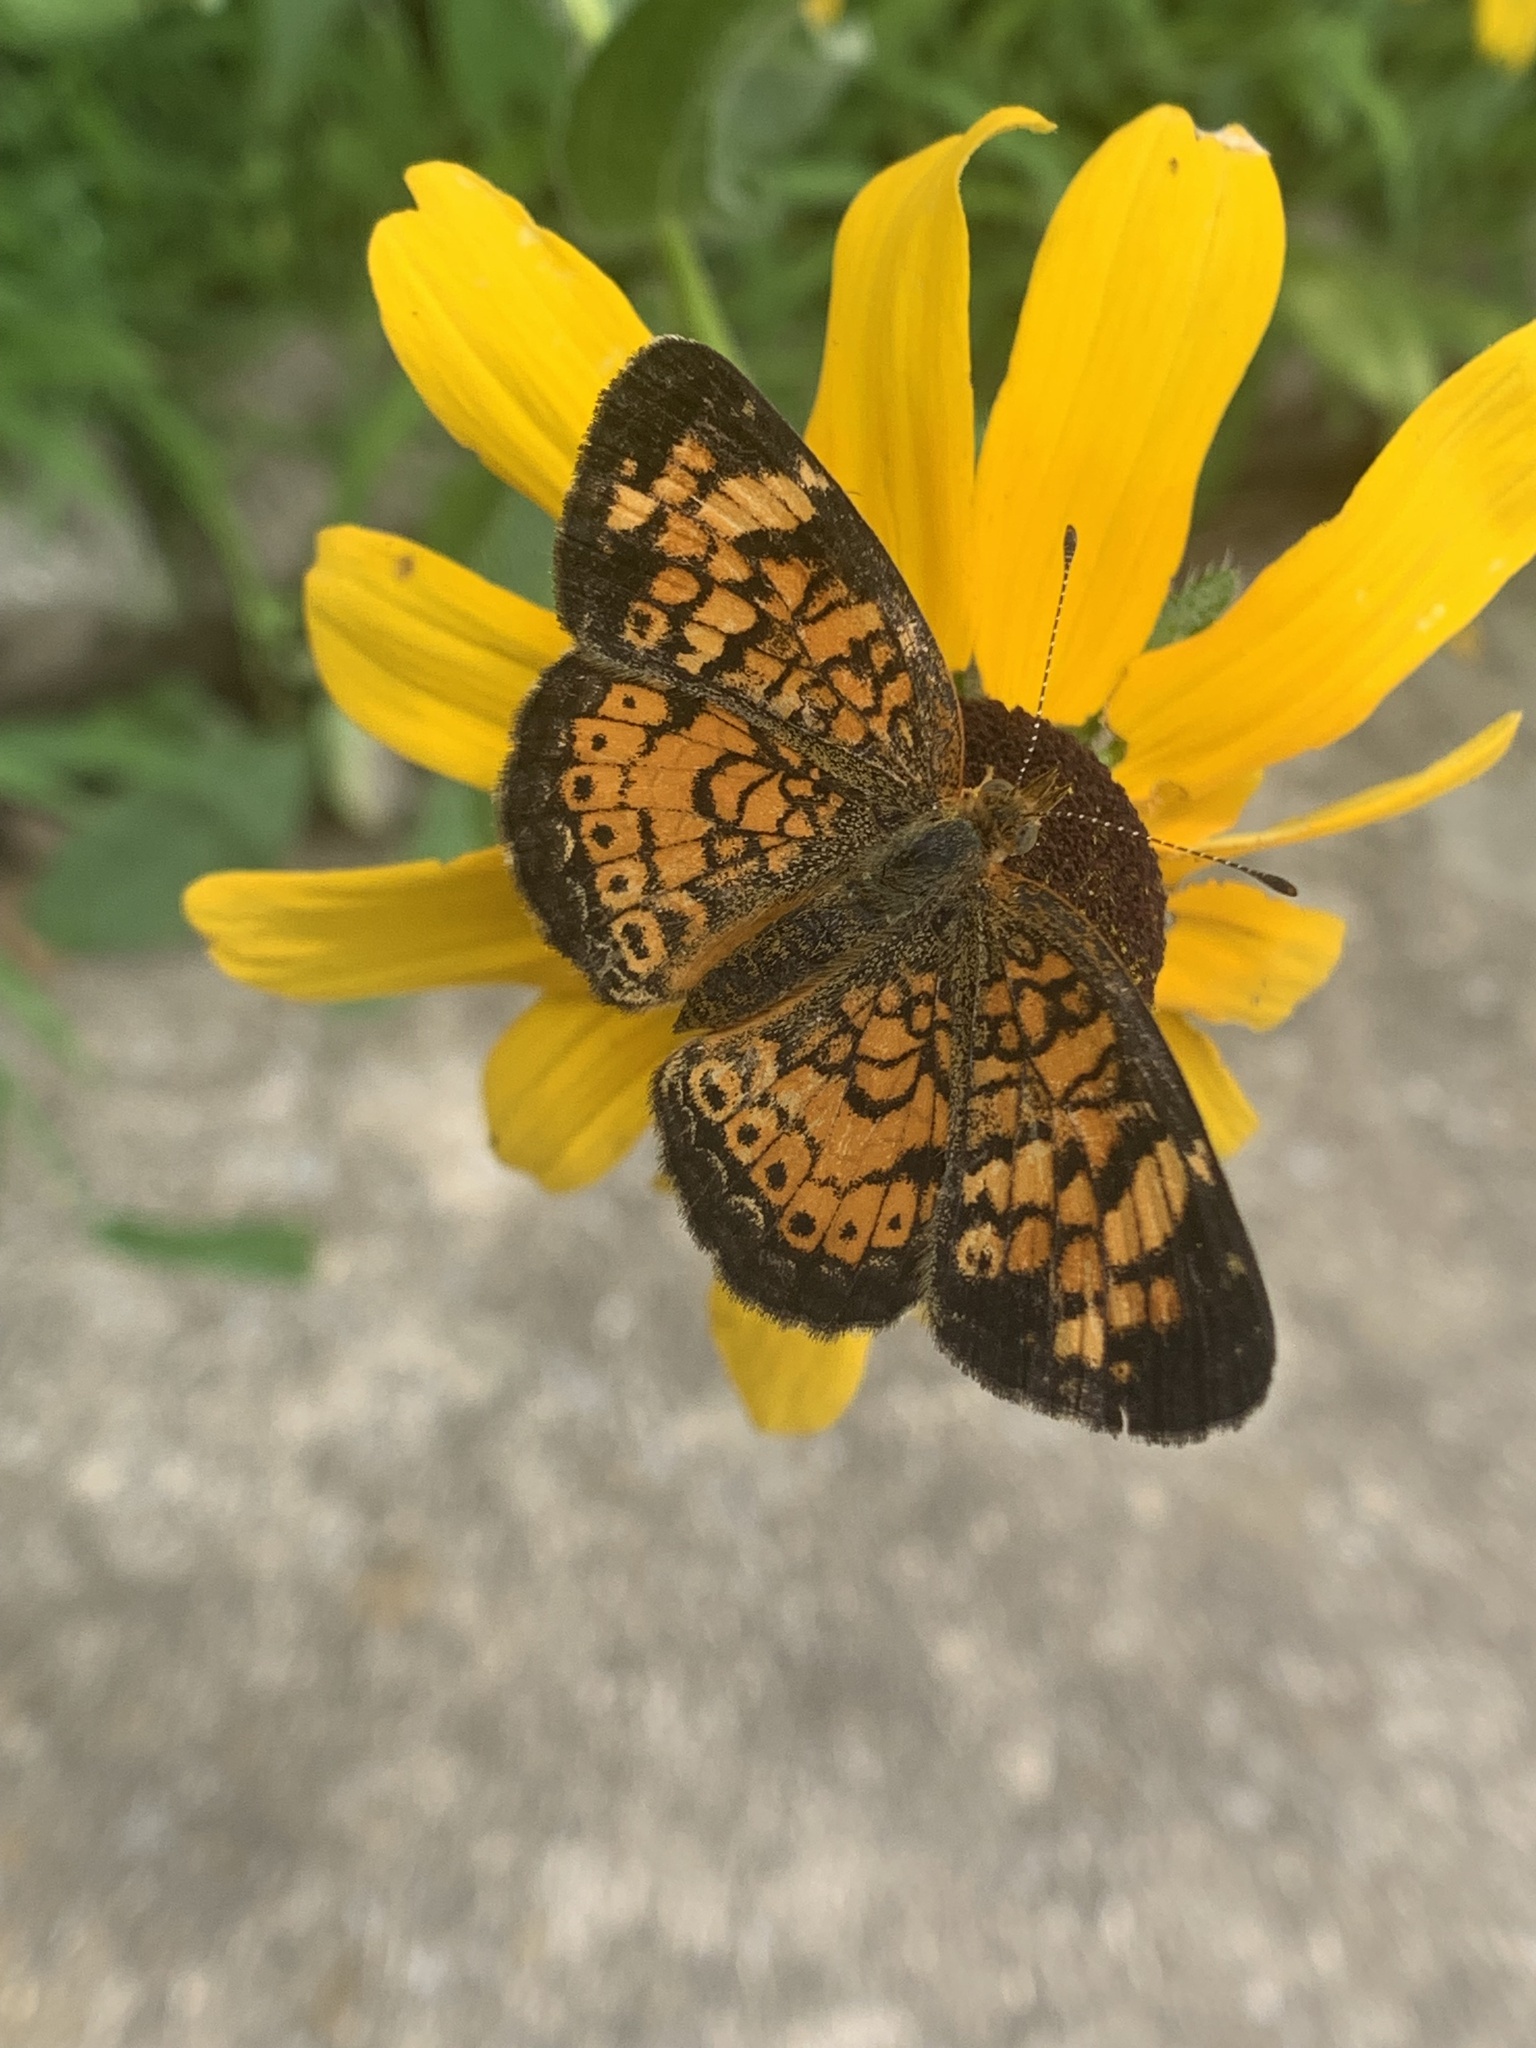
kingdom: Animalia
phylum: Arthropoda
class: Insecta
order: Lepidoptera
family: Nymphalidae
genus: Phyciodes
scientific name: Phyciodes tharos
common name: Pearl crescent
